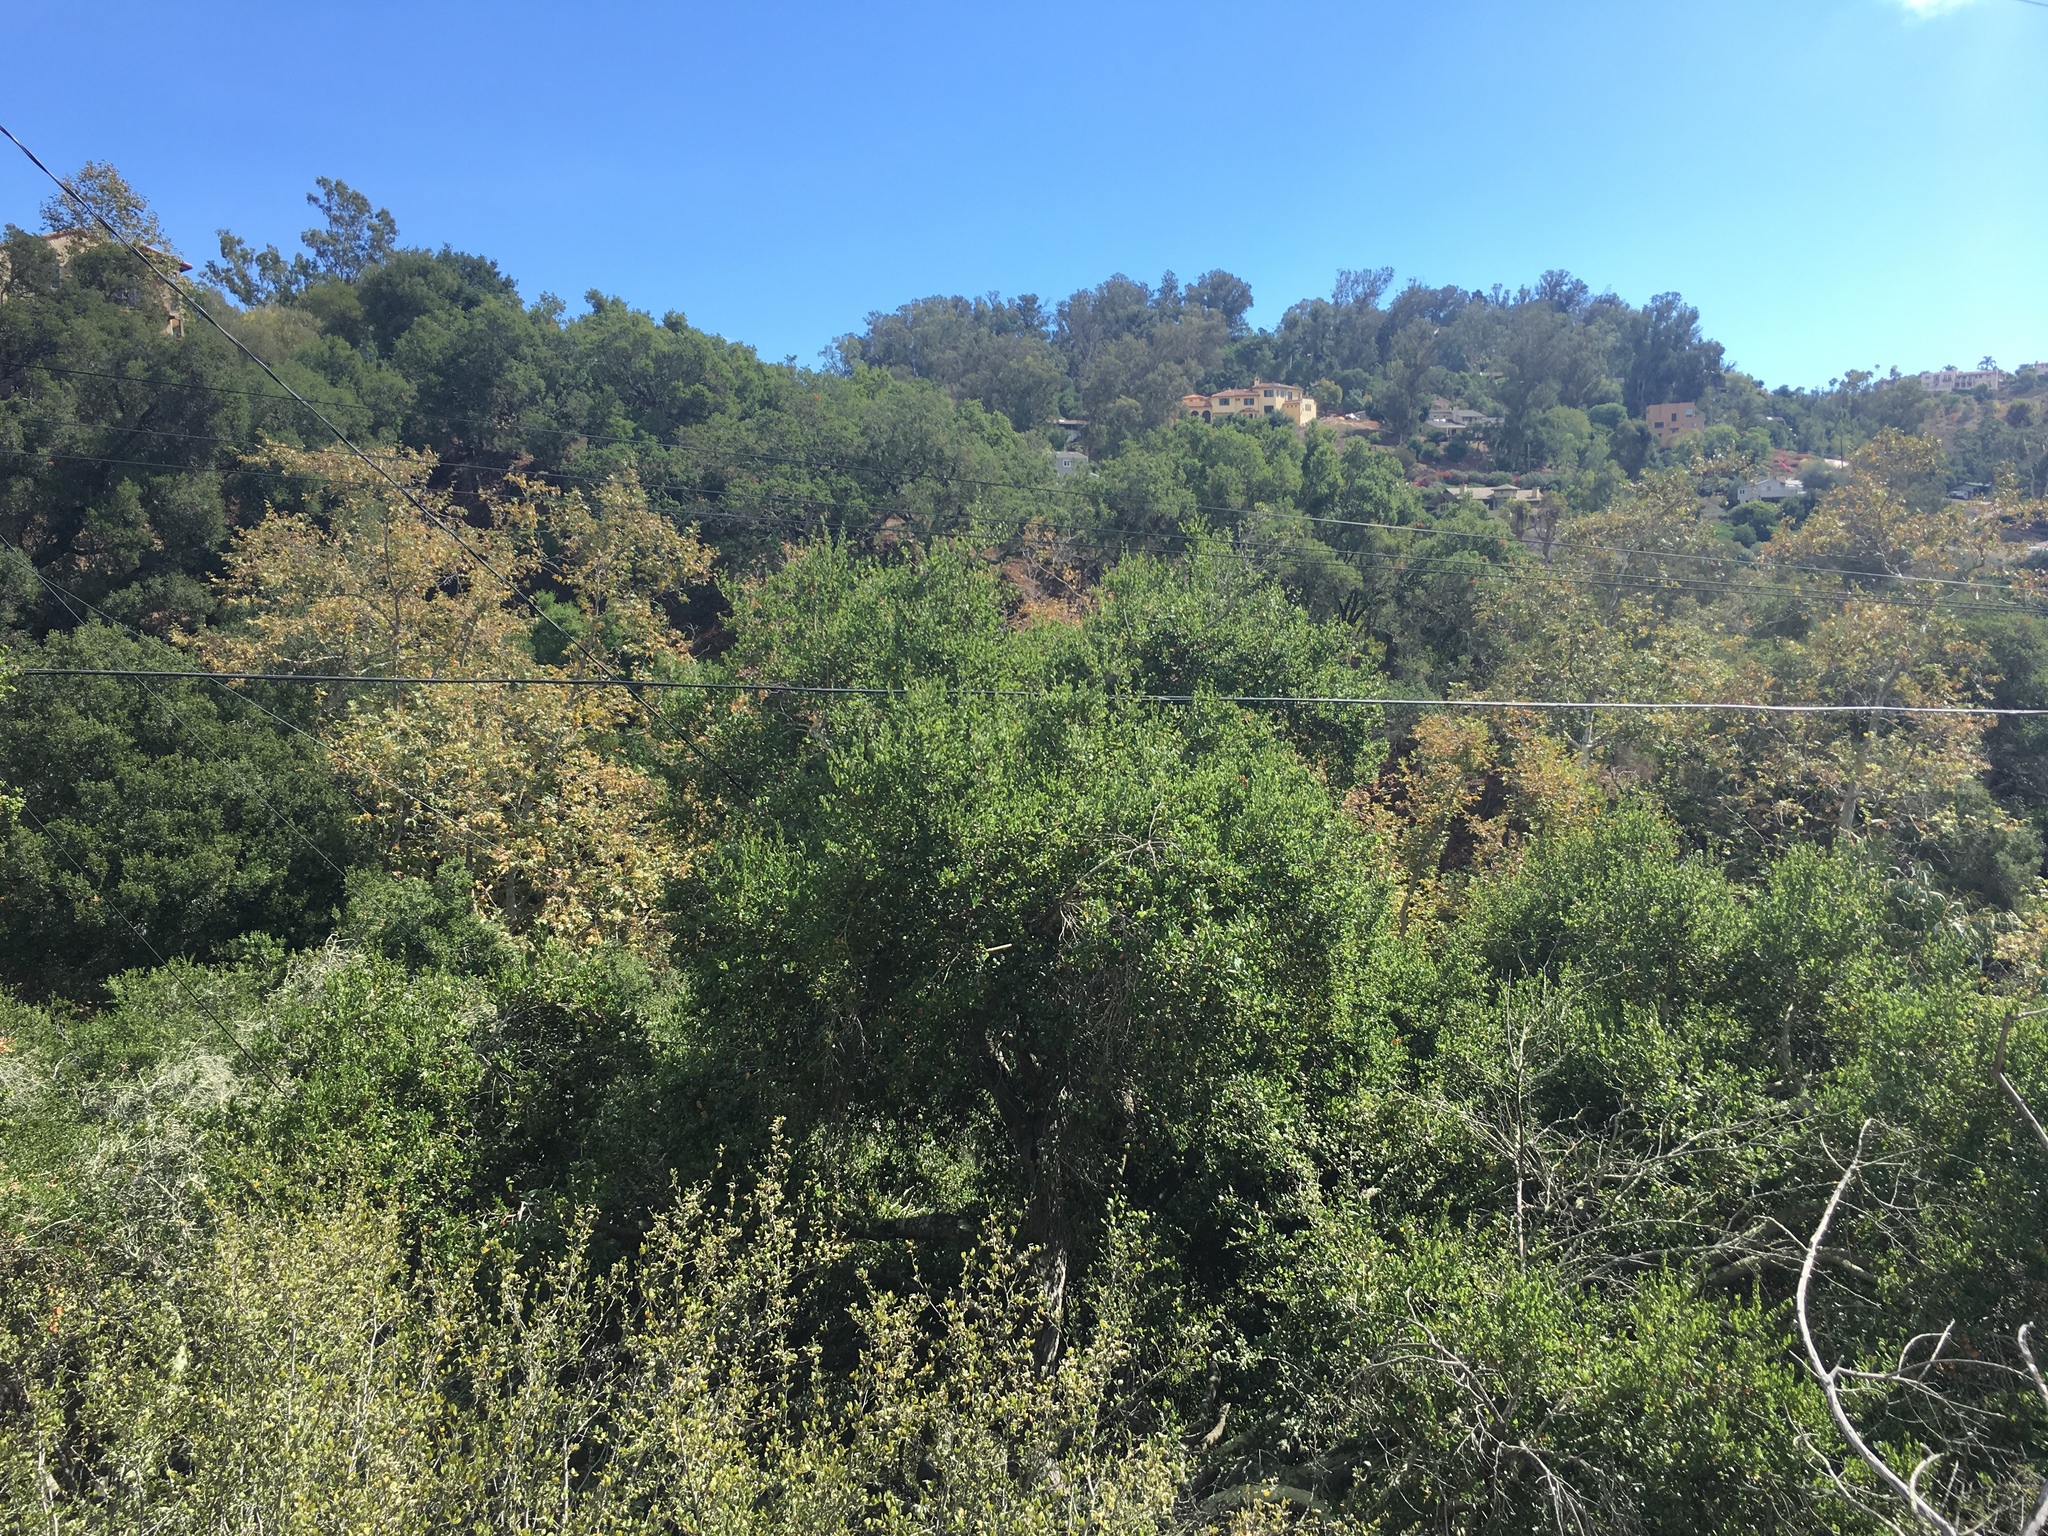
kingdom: Plantae
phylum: Tracheophyta
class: Magnoliopsida
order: Proteales
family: Platanaceae
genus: Platanus
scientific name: Platanus racemosa
